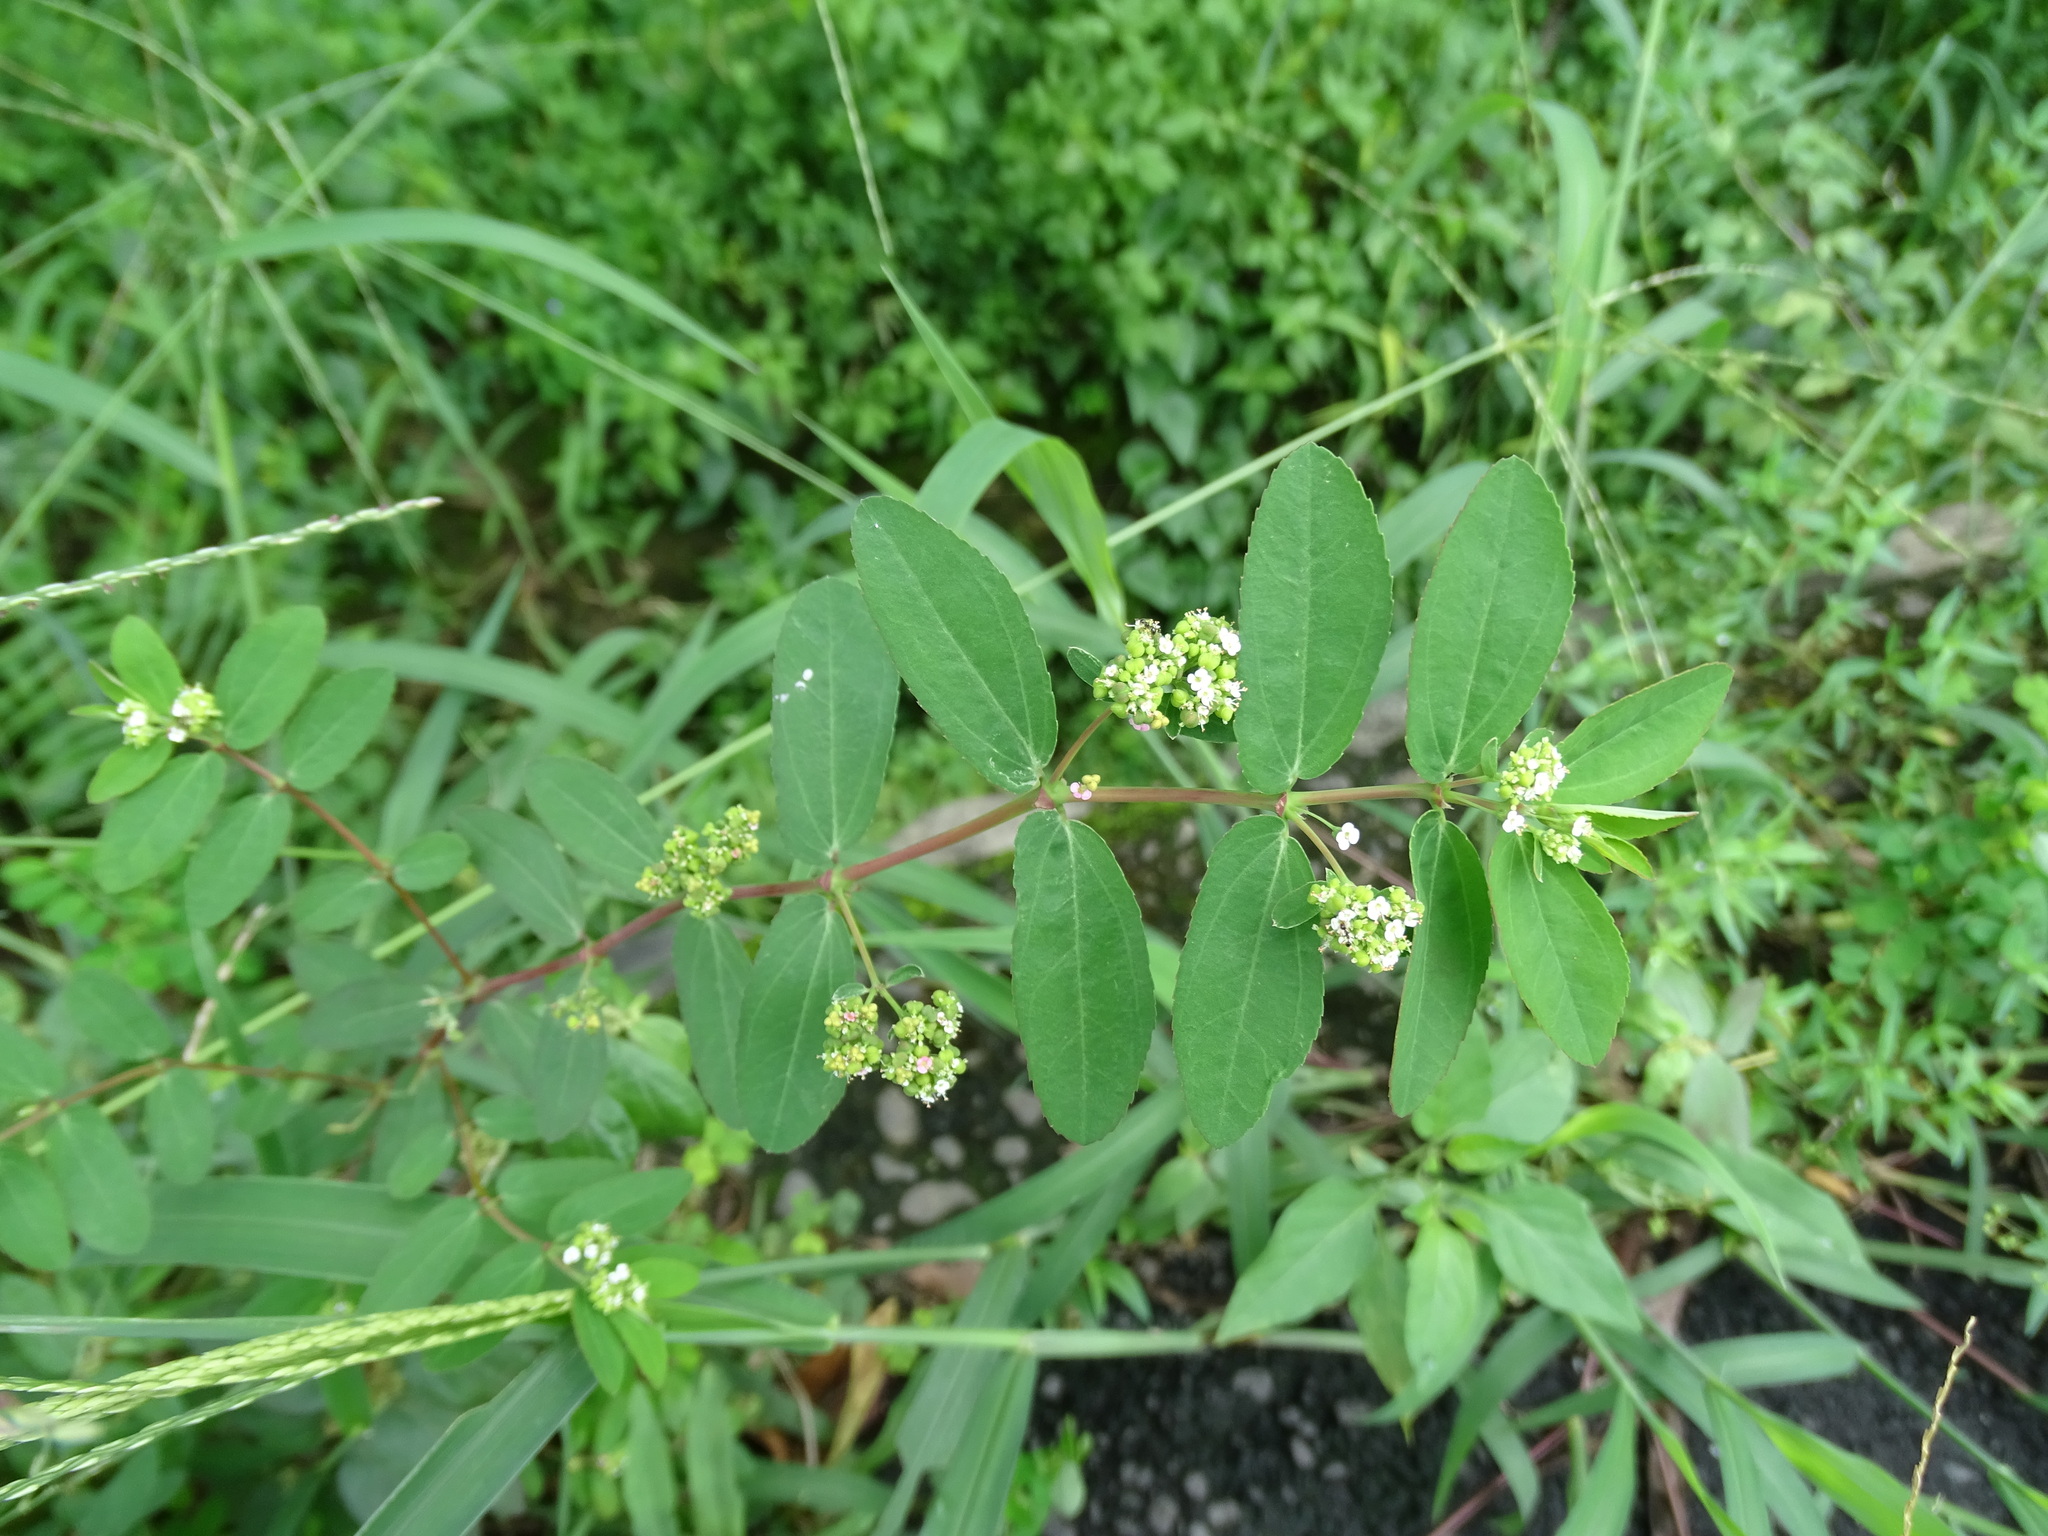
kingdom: Plantae
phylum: Tracheophyta
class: Magnoliopsida
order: Malpighiales
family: Euphorbiaceae
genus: Euphorbia
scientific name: Euphorbia hypericifolia
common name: Graceful sandmat
